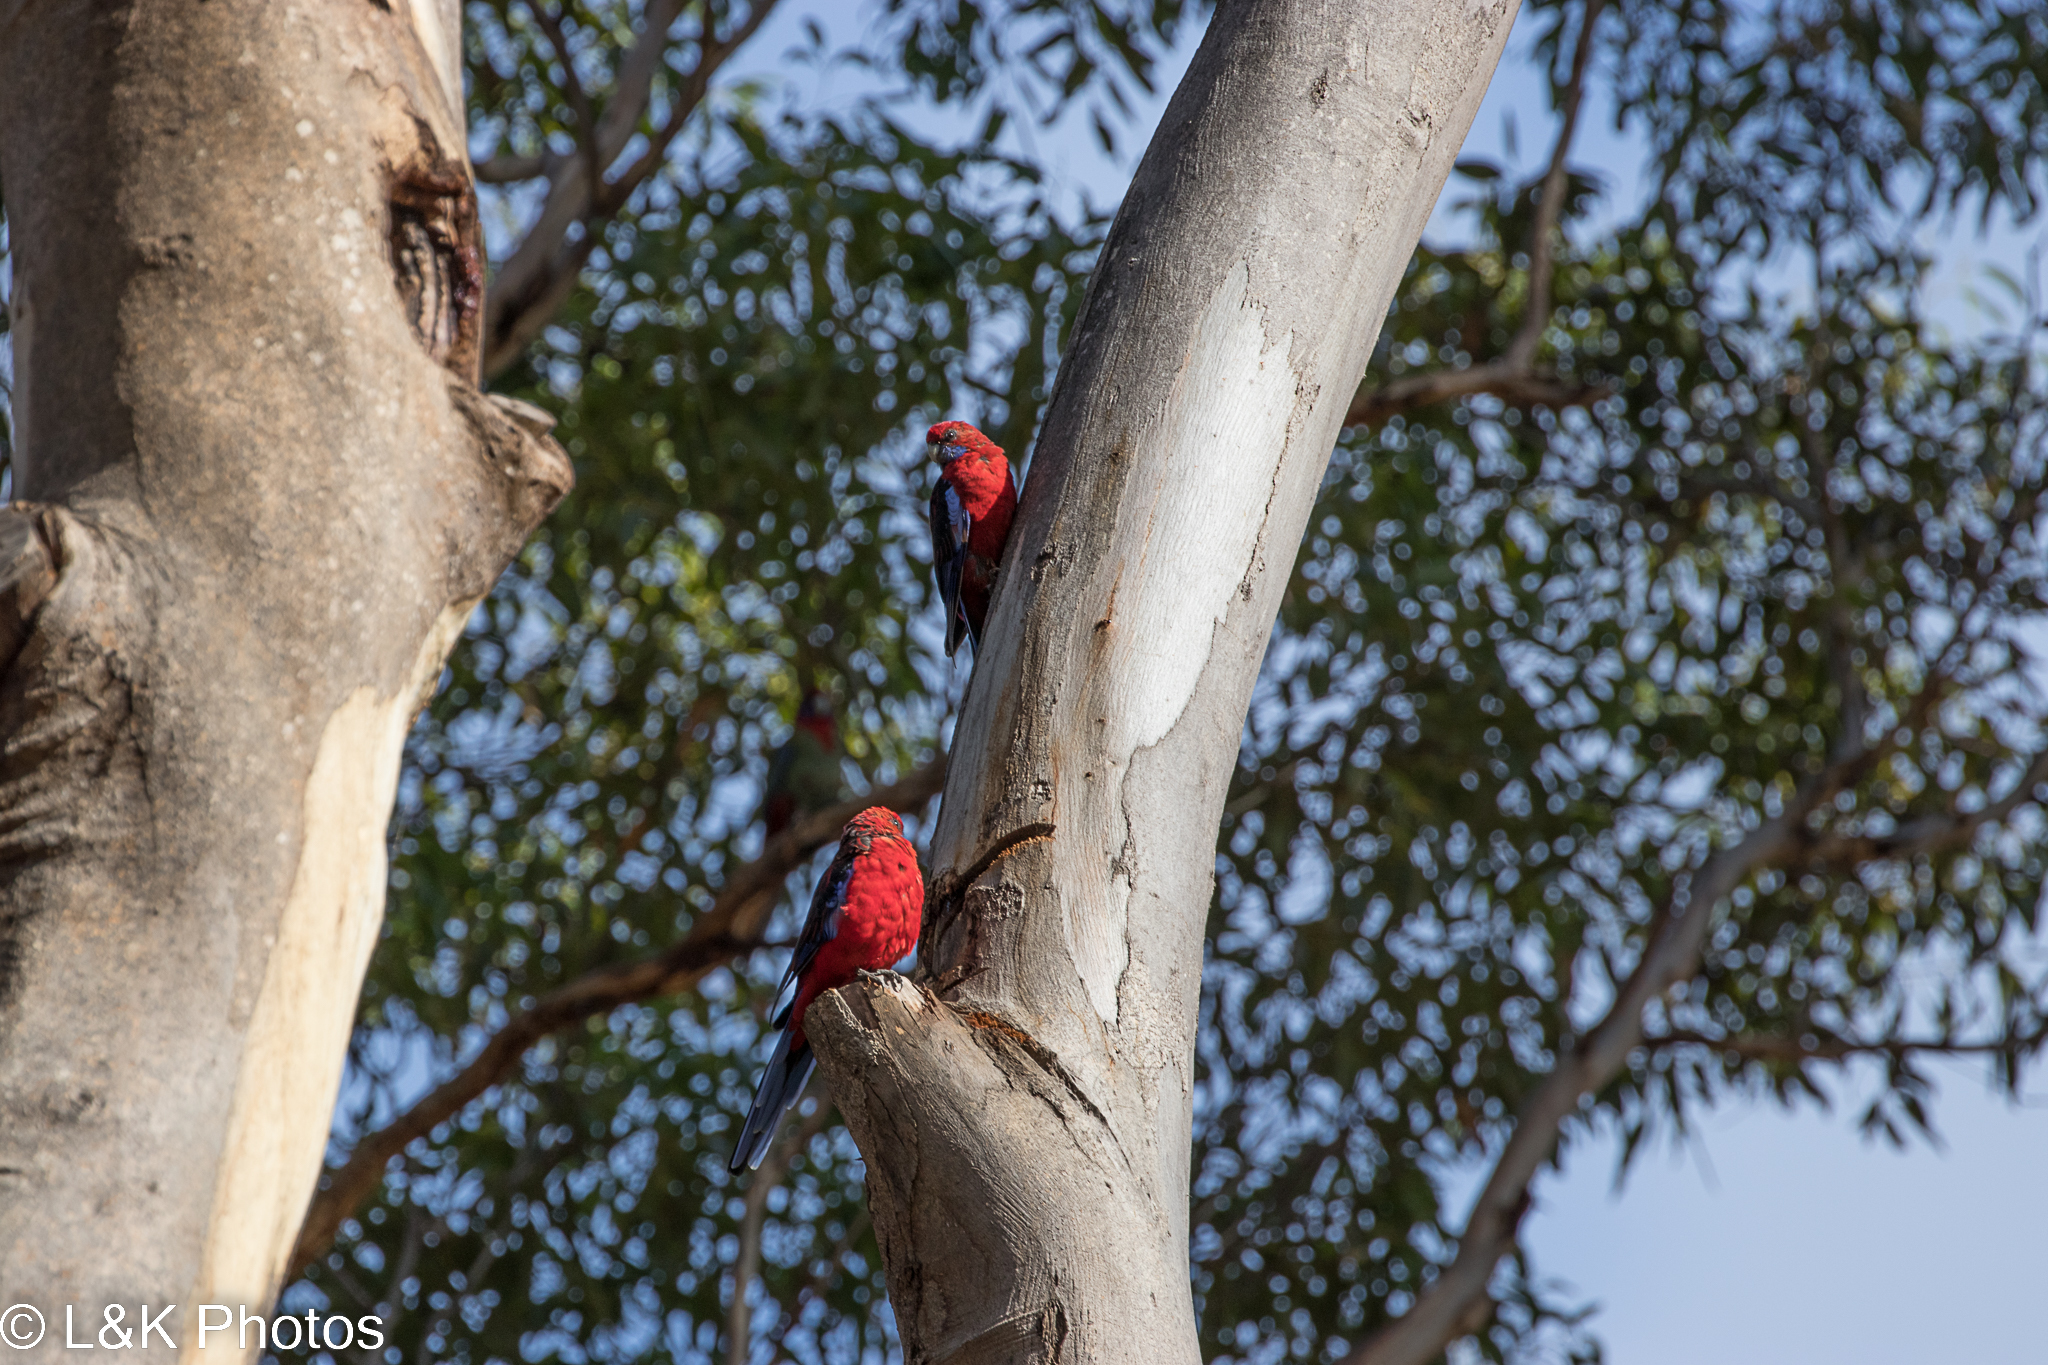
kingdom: Animalia
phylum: Chordata
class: Aves
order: Psittaciformes
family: Psittacidae
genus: Platycercus
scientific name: Platycercus elegans
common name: Crimson rosella
